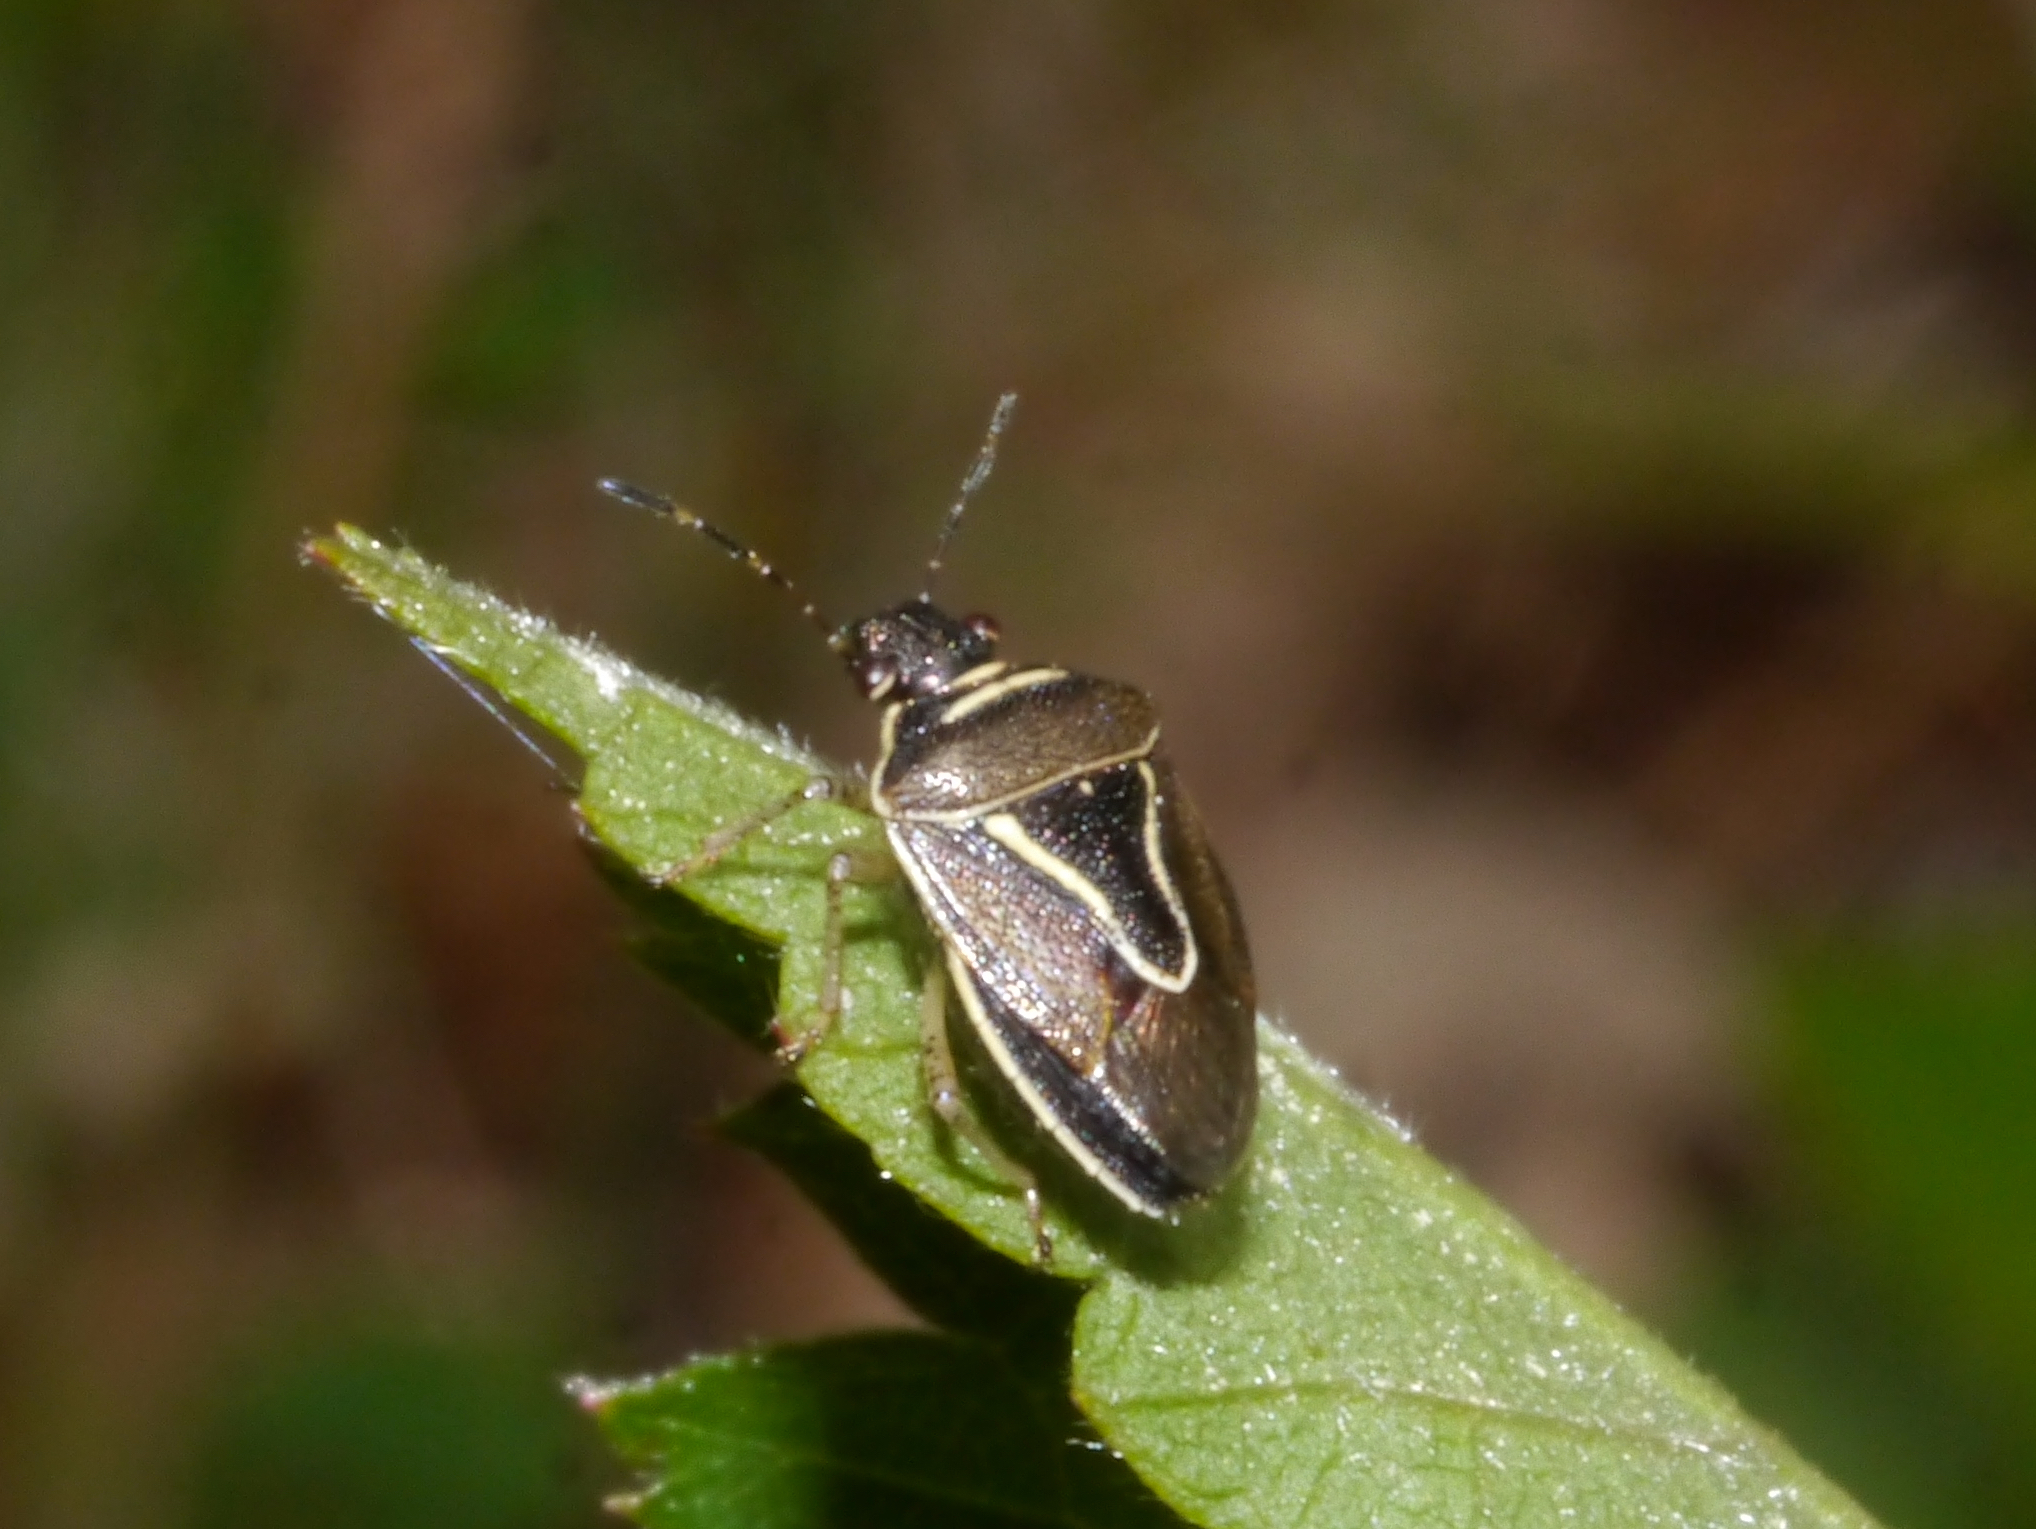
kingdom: Animalia
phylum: Arthropoda
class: Insecta
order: Hemiptera
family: Pentatomidae
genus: Mormidea
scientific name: Mormidea lugens
